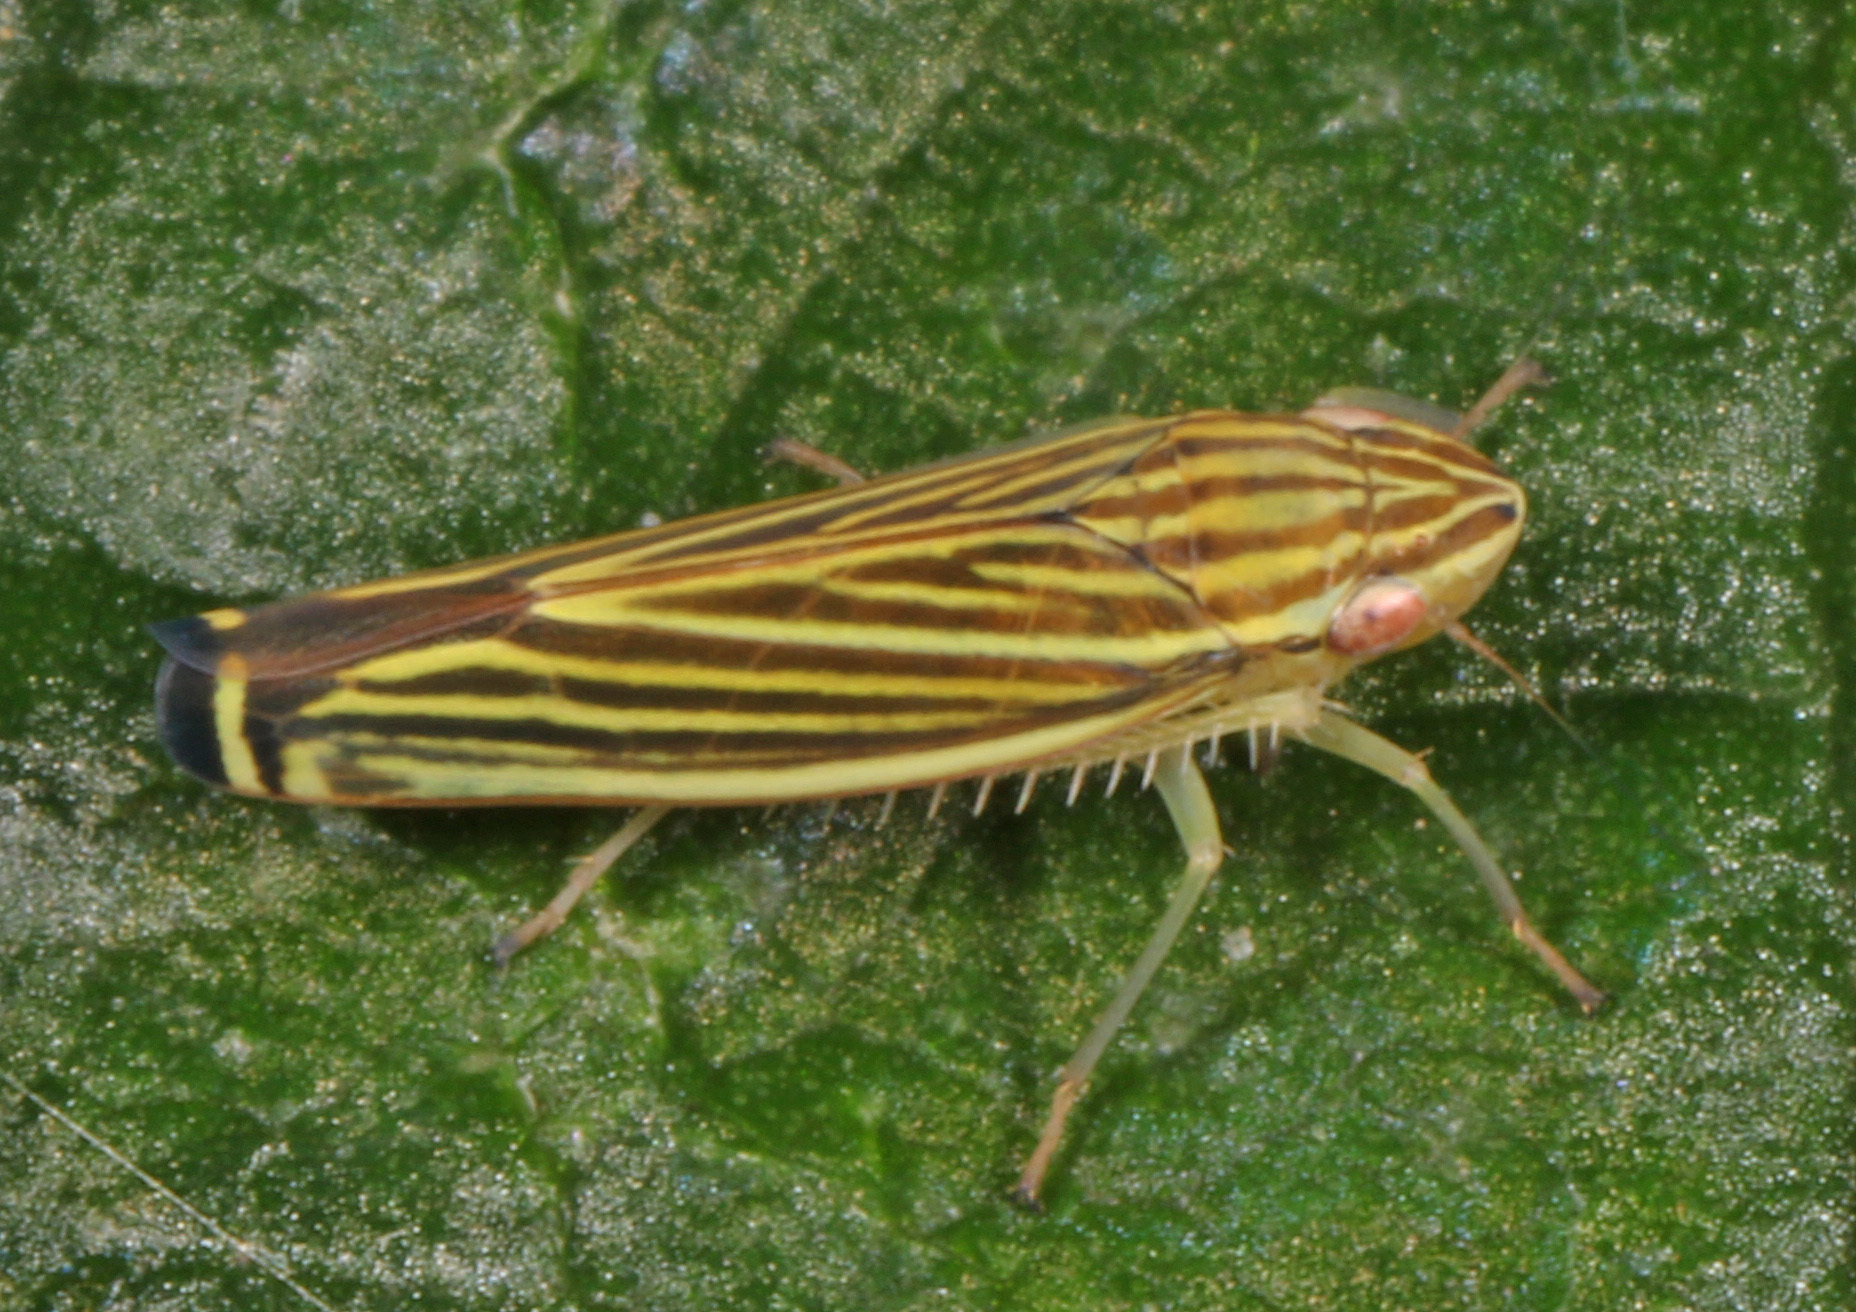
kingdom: Animalia
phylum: Arthropoda
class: Insecta
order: Hemiptera
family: Cicadellidae
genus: Sibovia
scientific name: Sibovia occatoria
